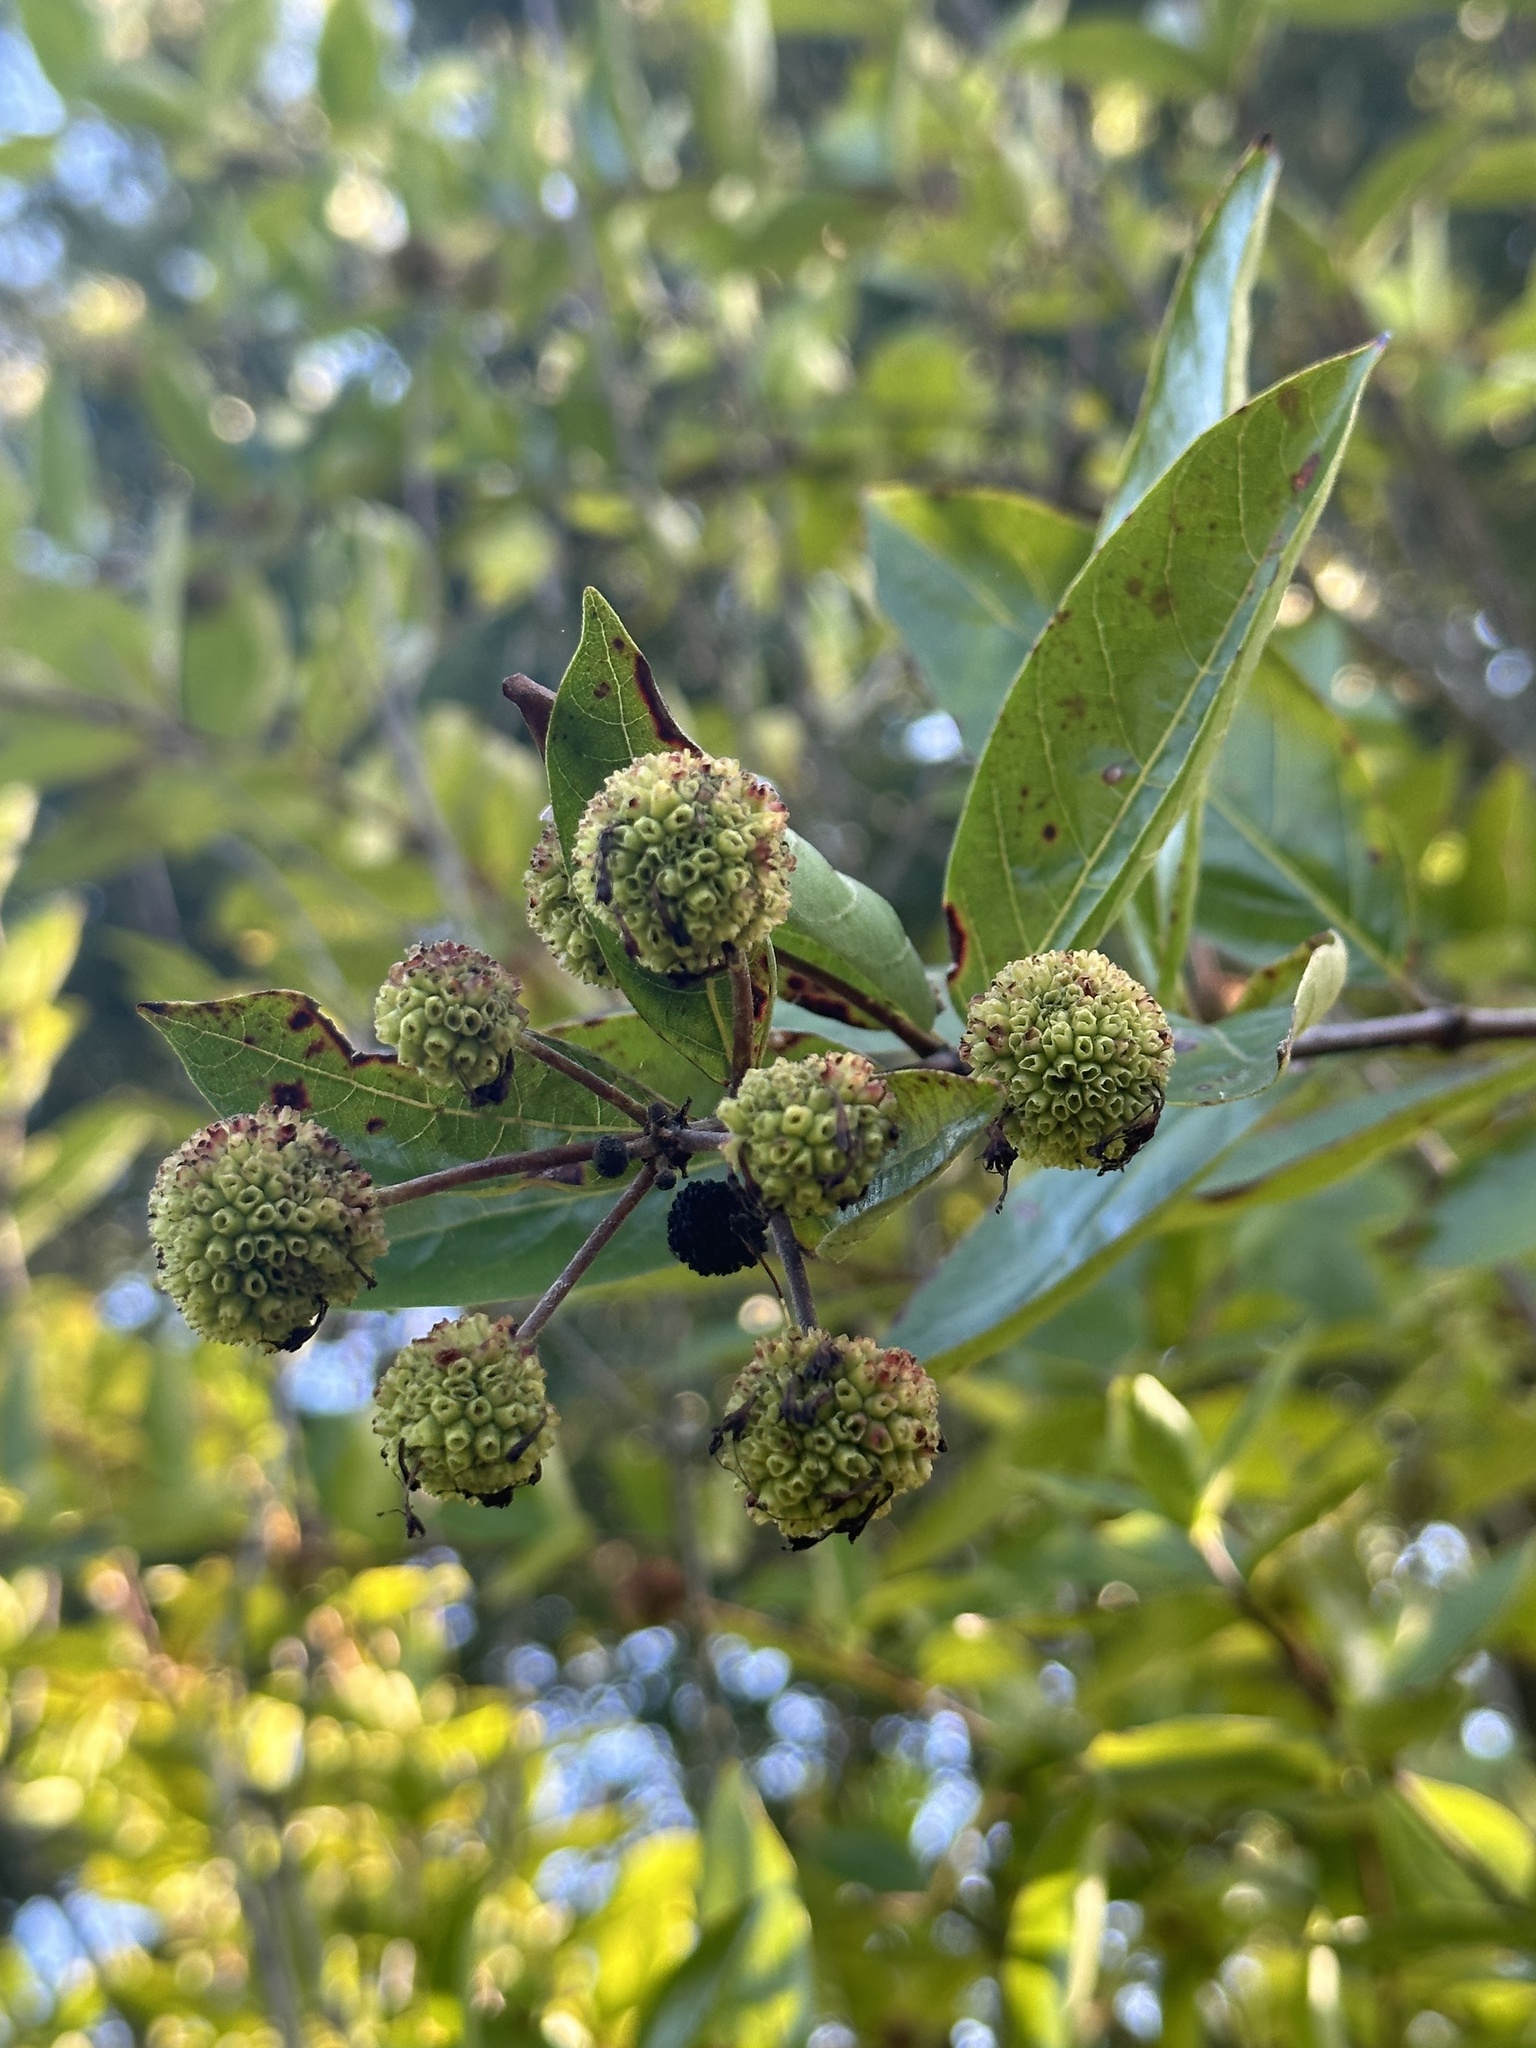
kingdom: Plantae
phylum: Tracheophyta
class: Magnoliopsida
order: Gentianales
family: Rubiaceae
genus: Cephalanthus
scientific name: Cephalanthus occidentalis
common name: Button-willow
